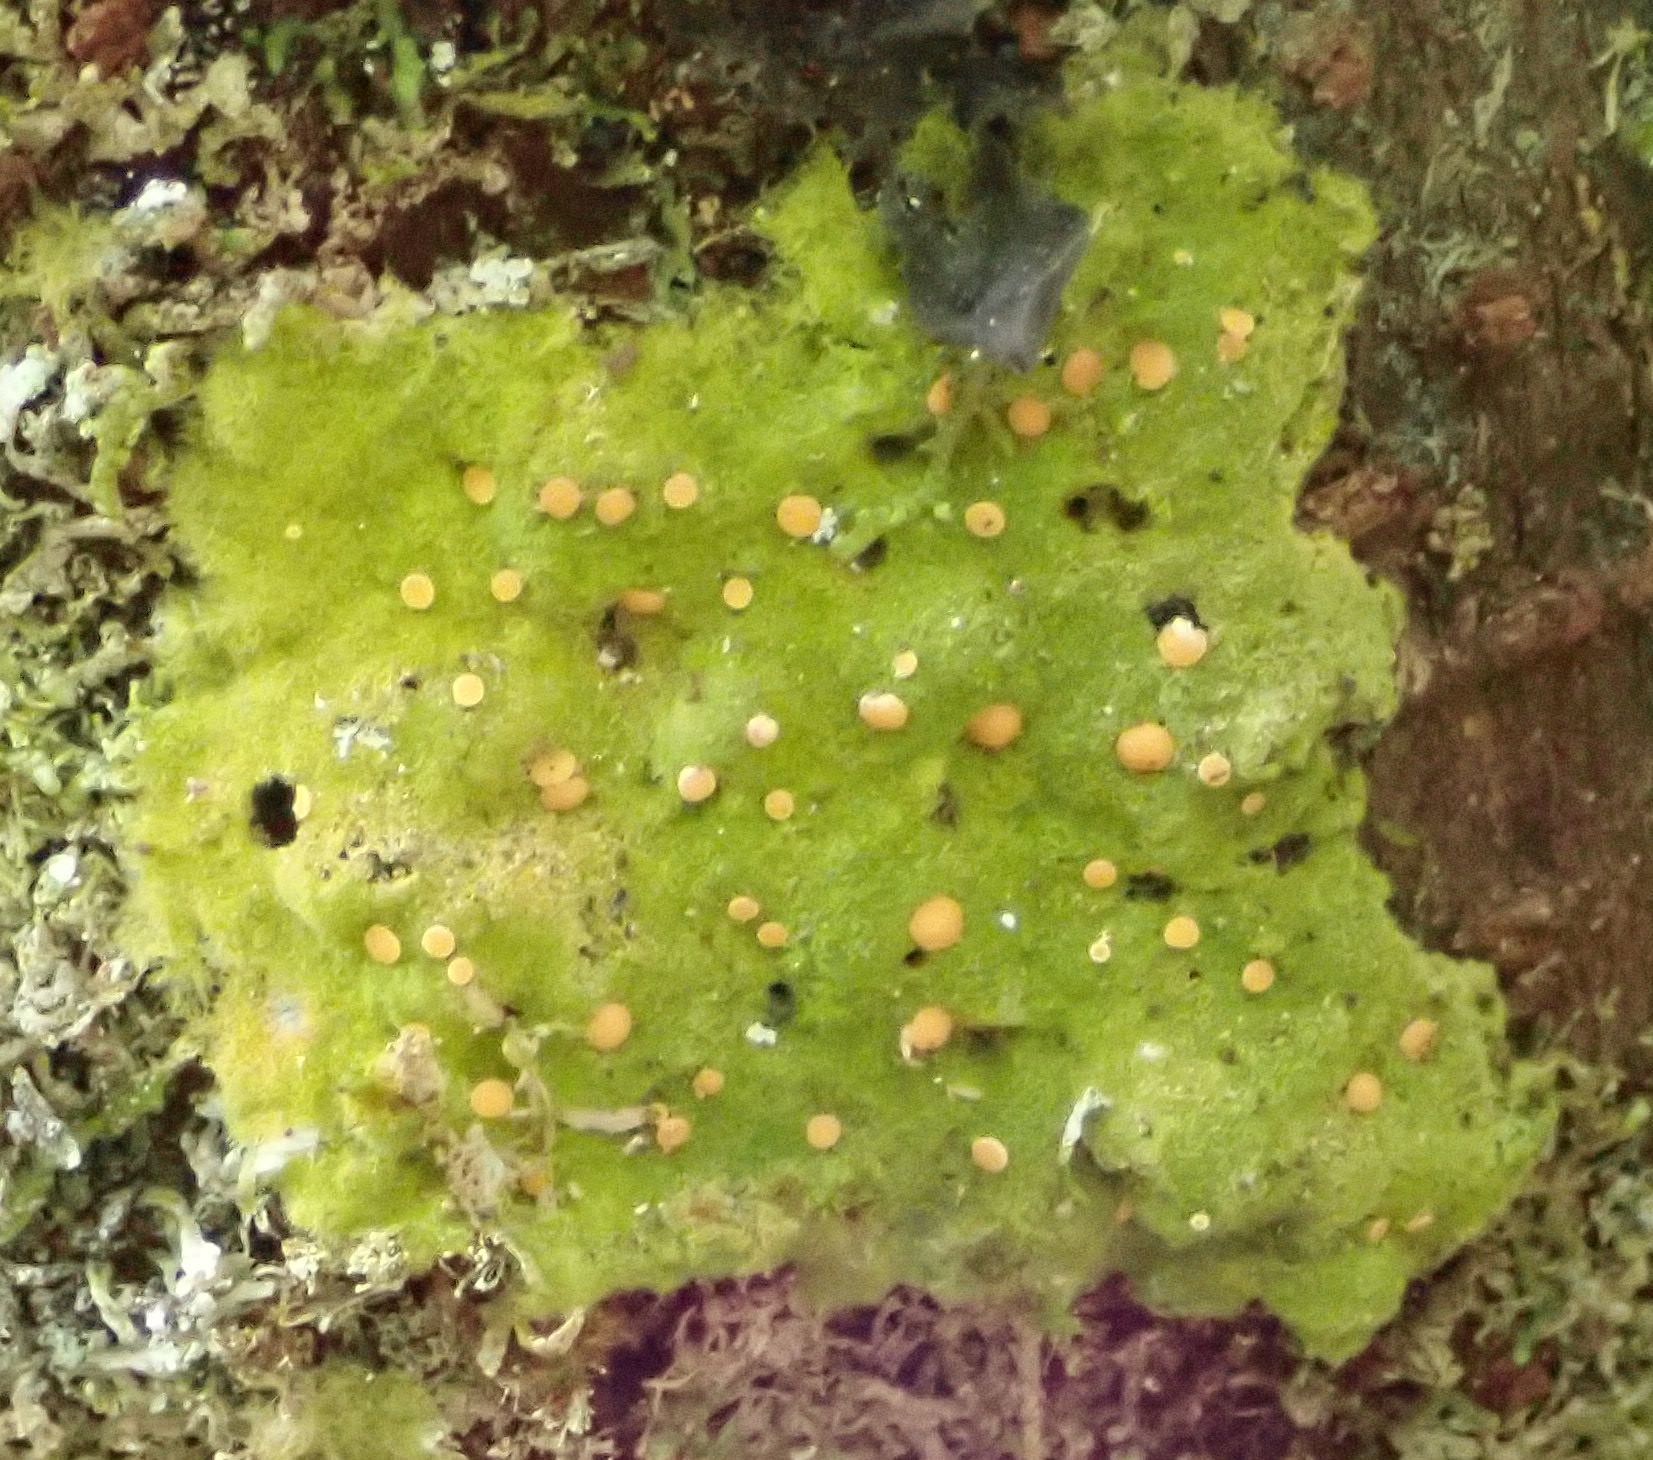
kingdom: Fungi
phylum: Ascomycota
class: Lecanoromycetes
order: Ostropales
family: Coenogoniaceae
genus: Coenogonium
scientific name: Coenogonium implexum
